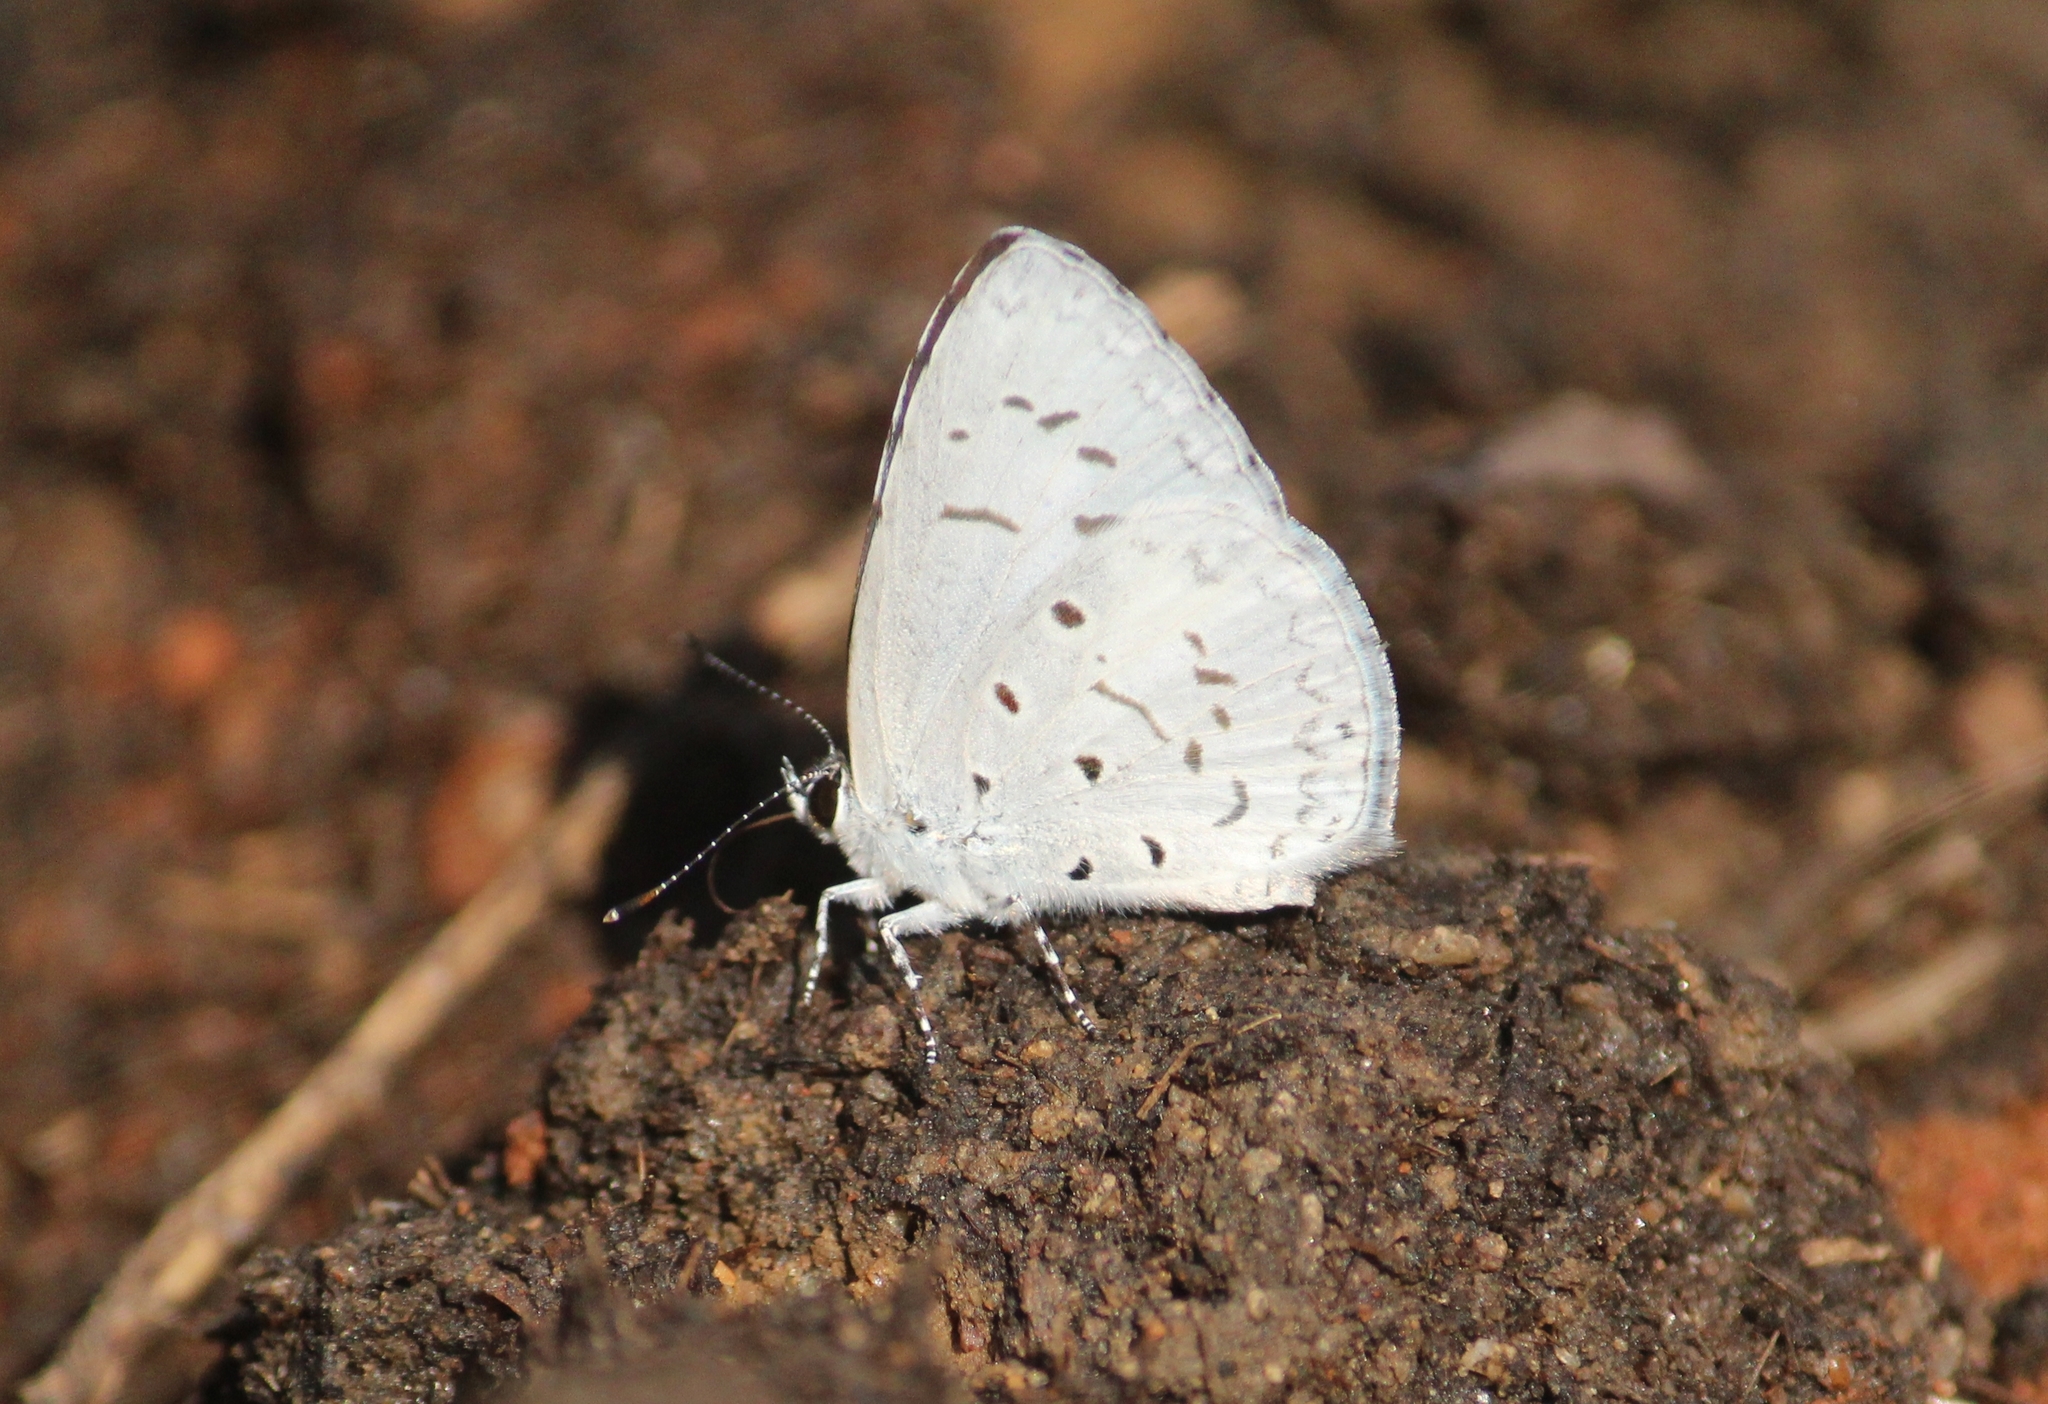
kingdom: Animalia
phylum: Arthropoda
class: Insecta
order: Lepidoptera
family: Lycaenidae
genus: Acytolepis
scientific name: Acytolepis puspa
